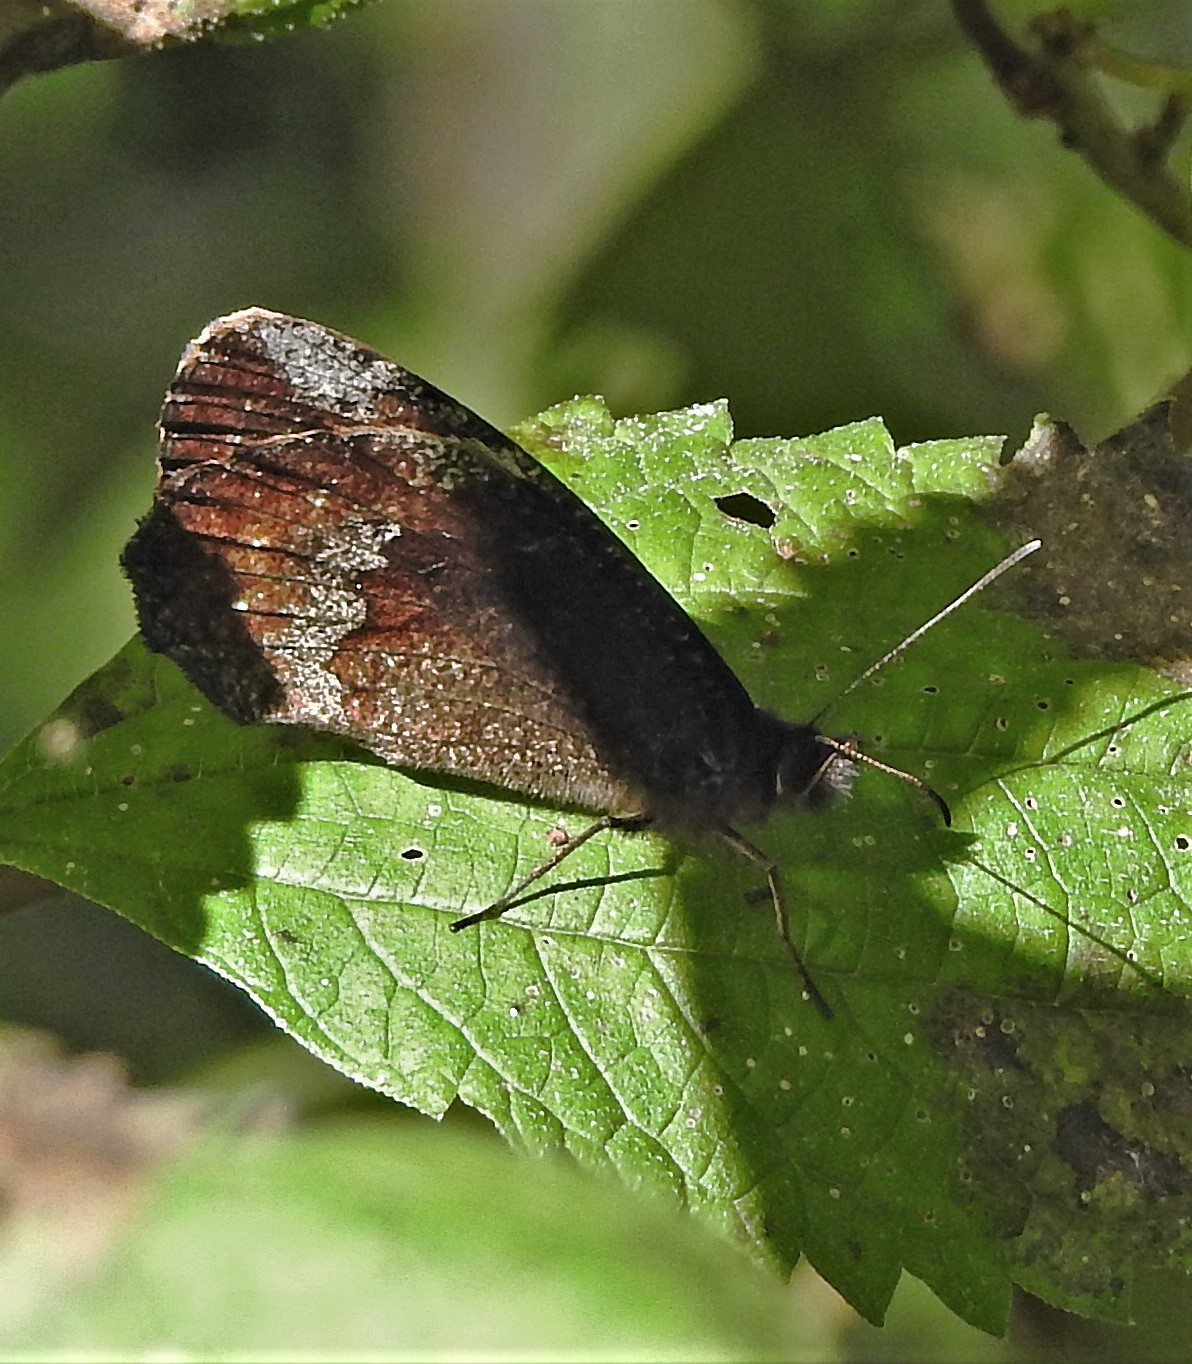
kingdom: Animalia
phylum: Arthropoda
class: Insecta
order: Lepidoptera
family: Nymphalidae
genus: Pedaliodes
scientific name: Pedaliodes porina
